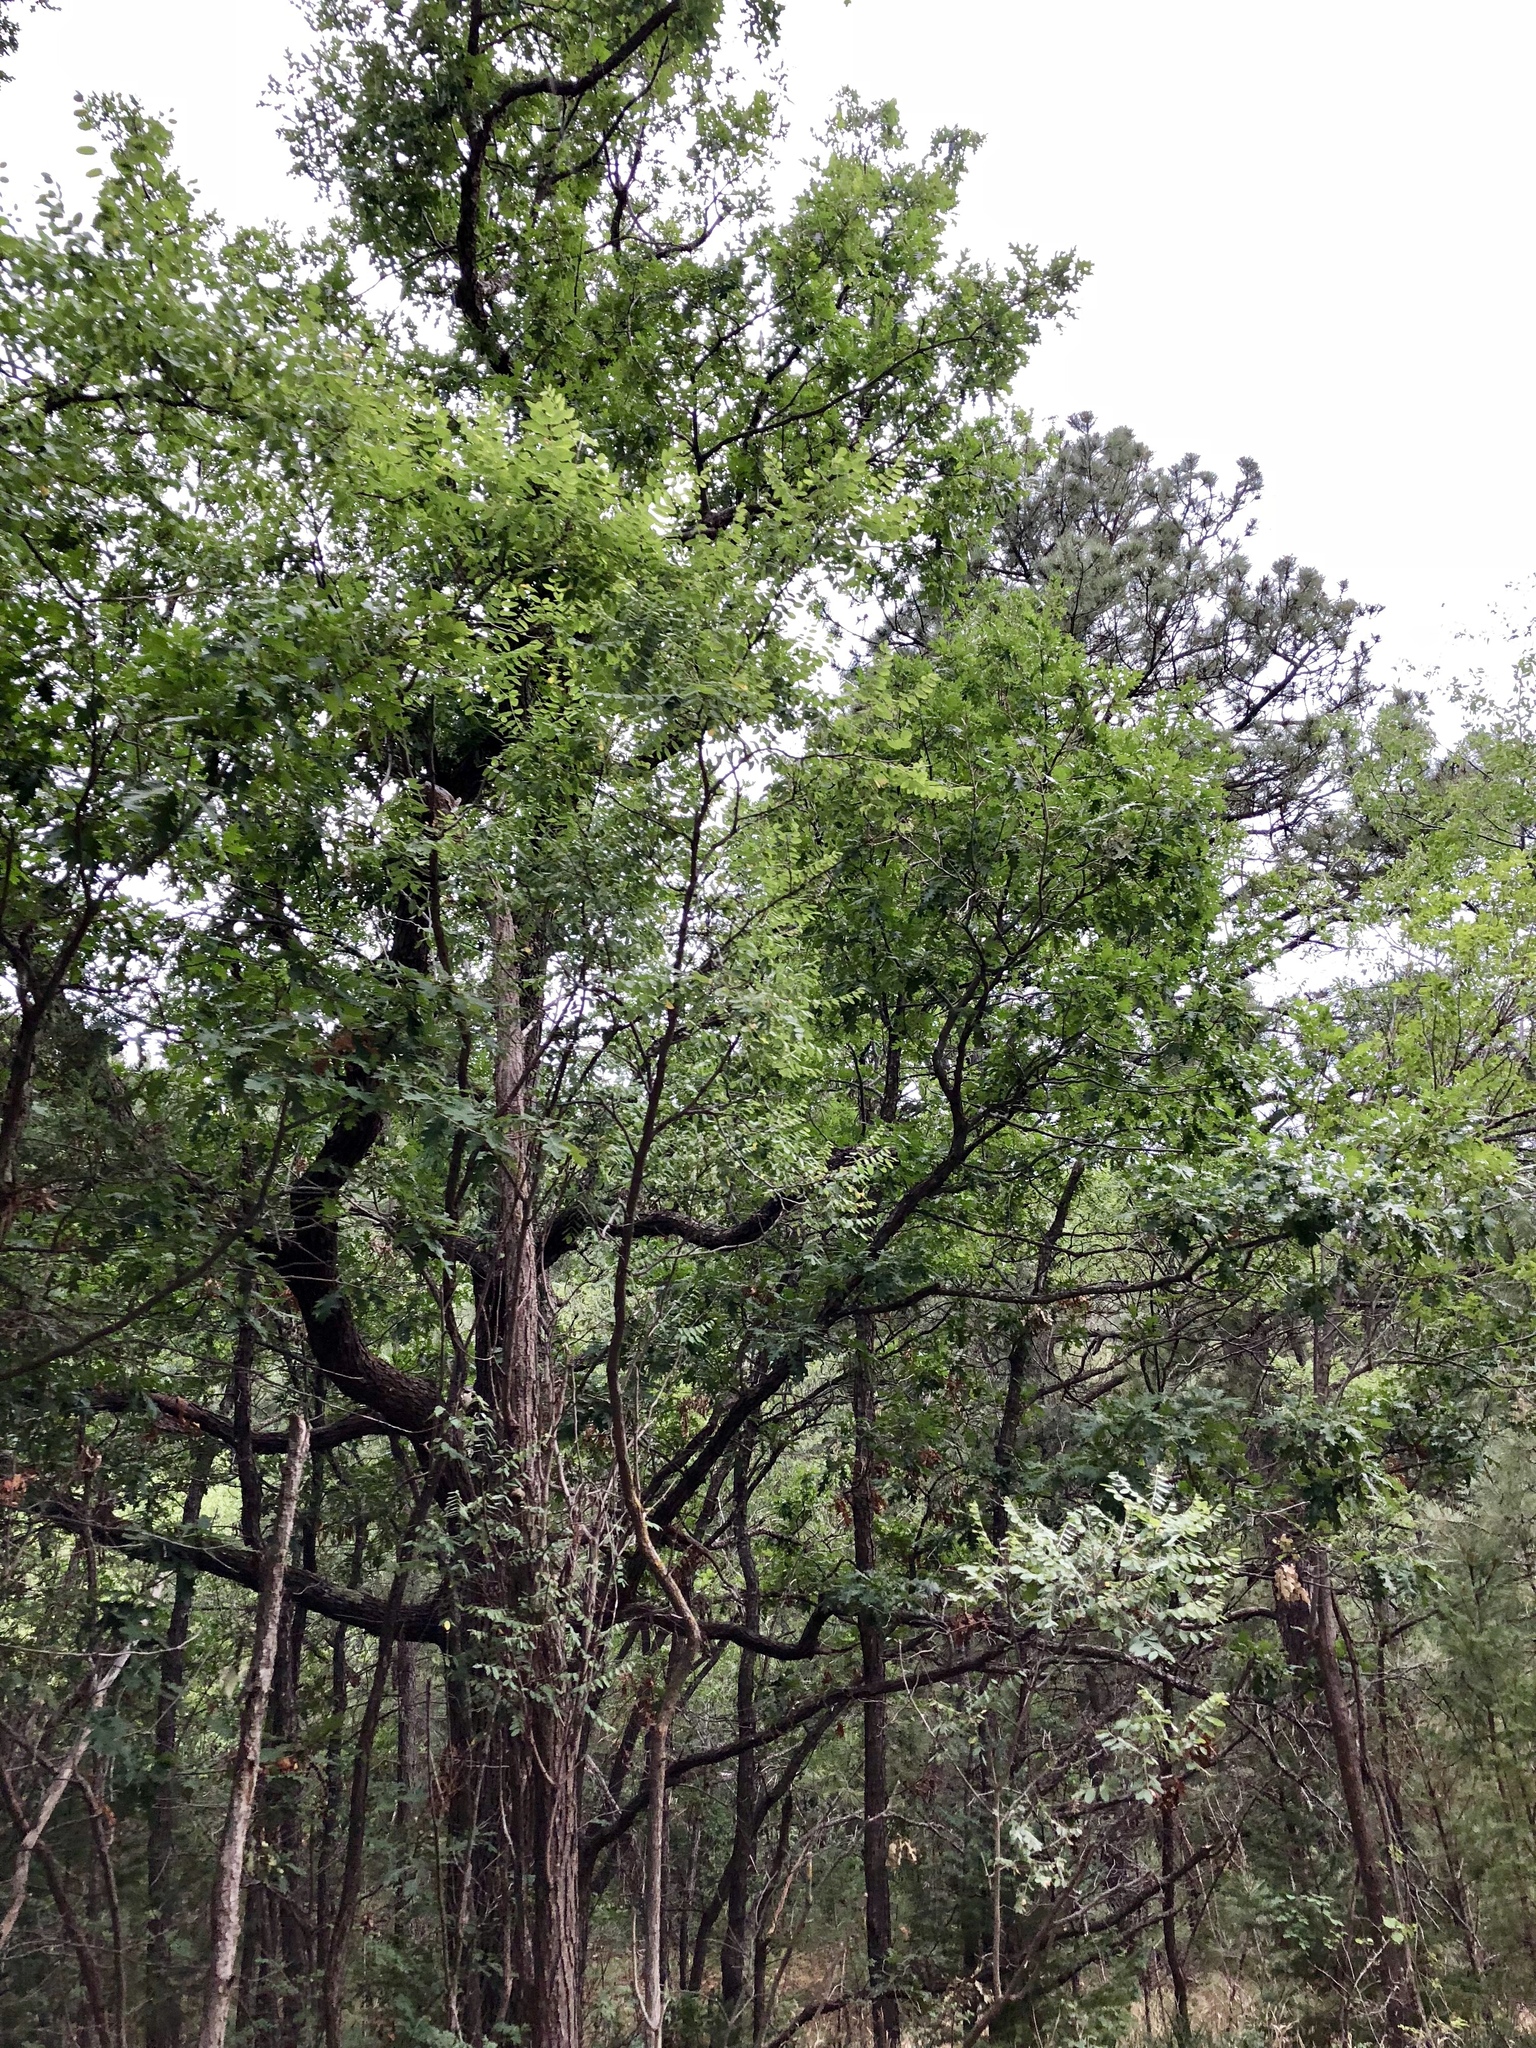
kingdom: Plantae
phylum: Tracheophyta
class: Magnoliopsida
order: Fagales
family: Fagaceae
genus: Quercus
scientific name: Quercus gambelii
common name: Gambel oak
